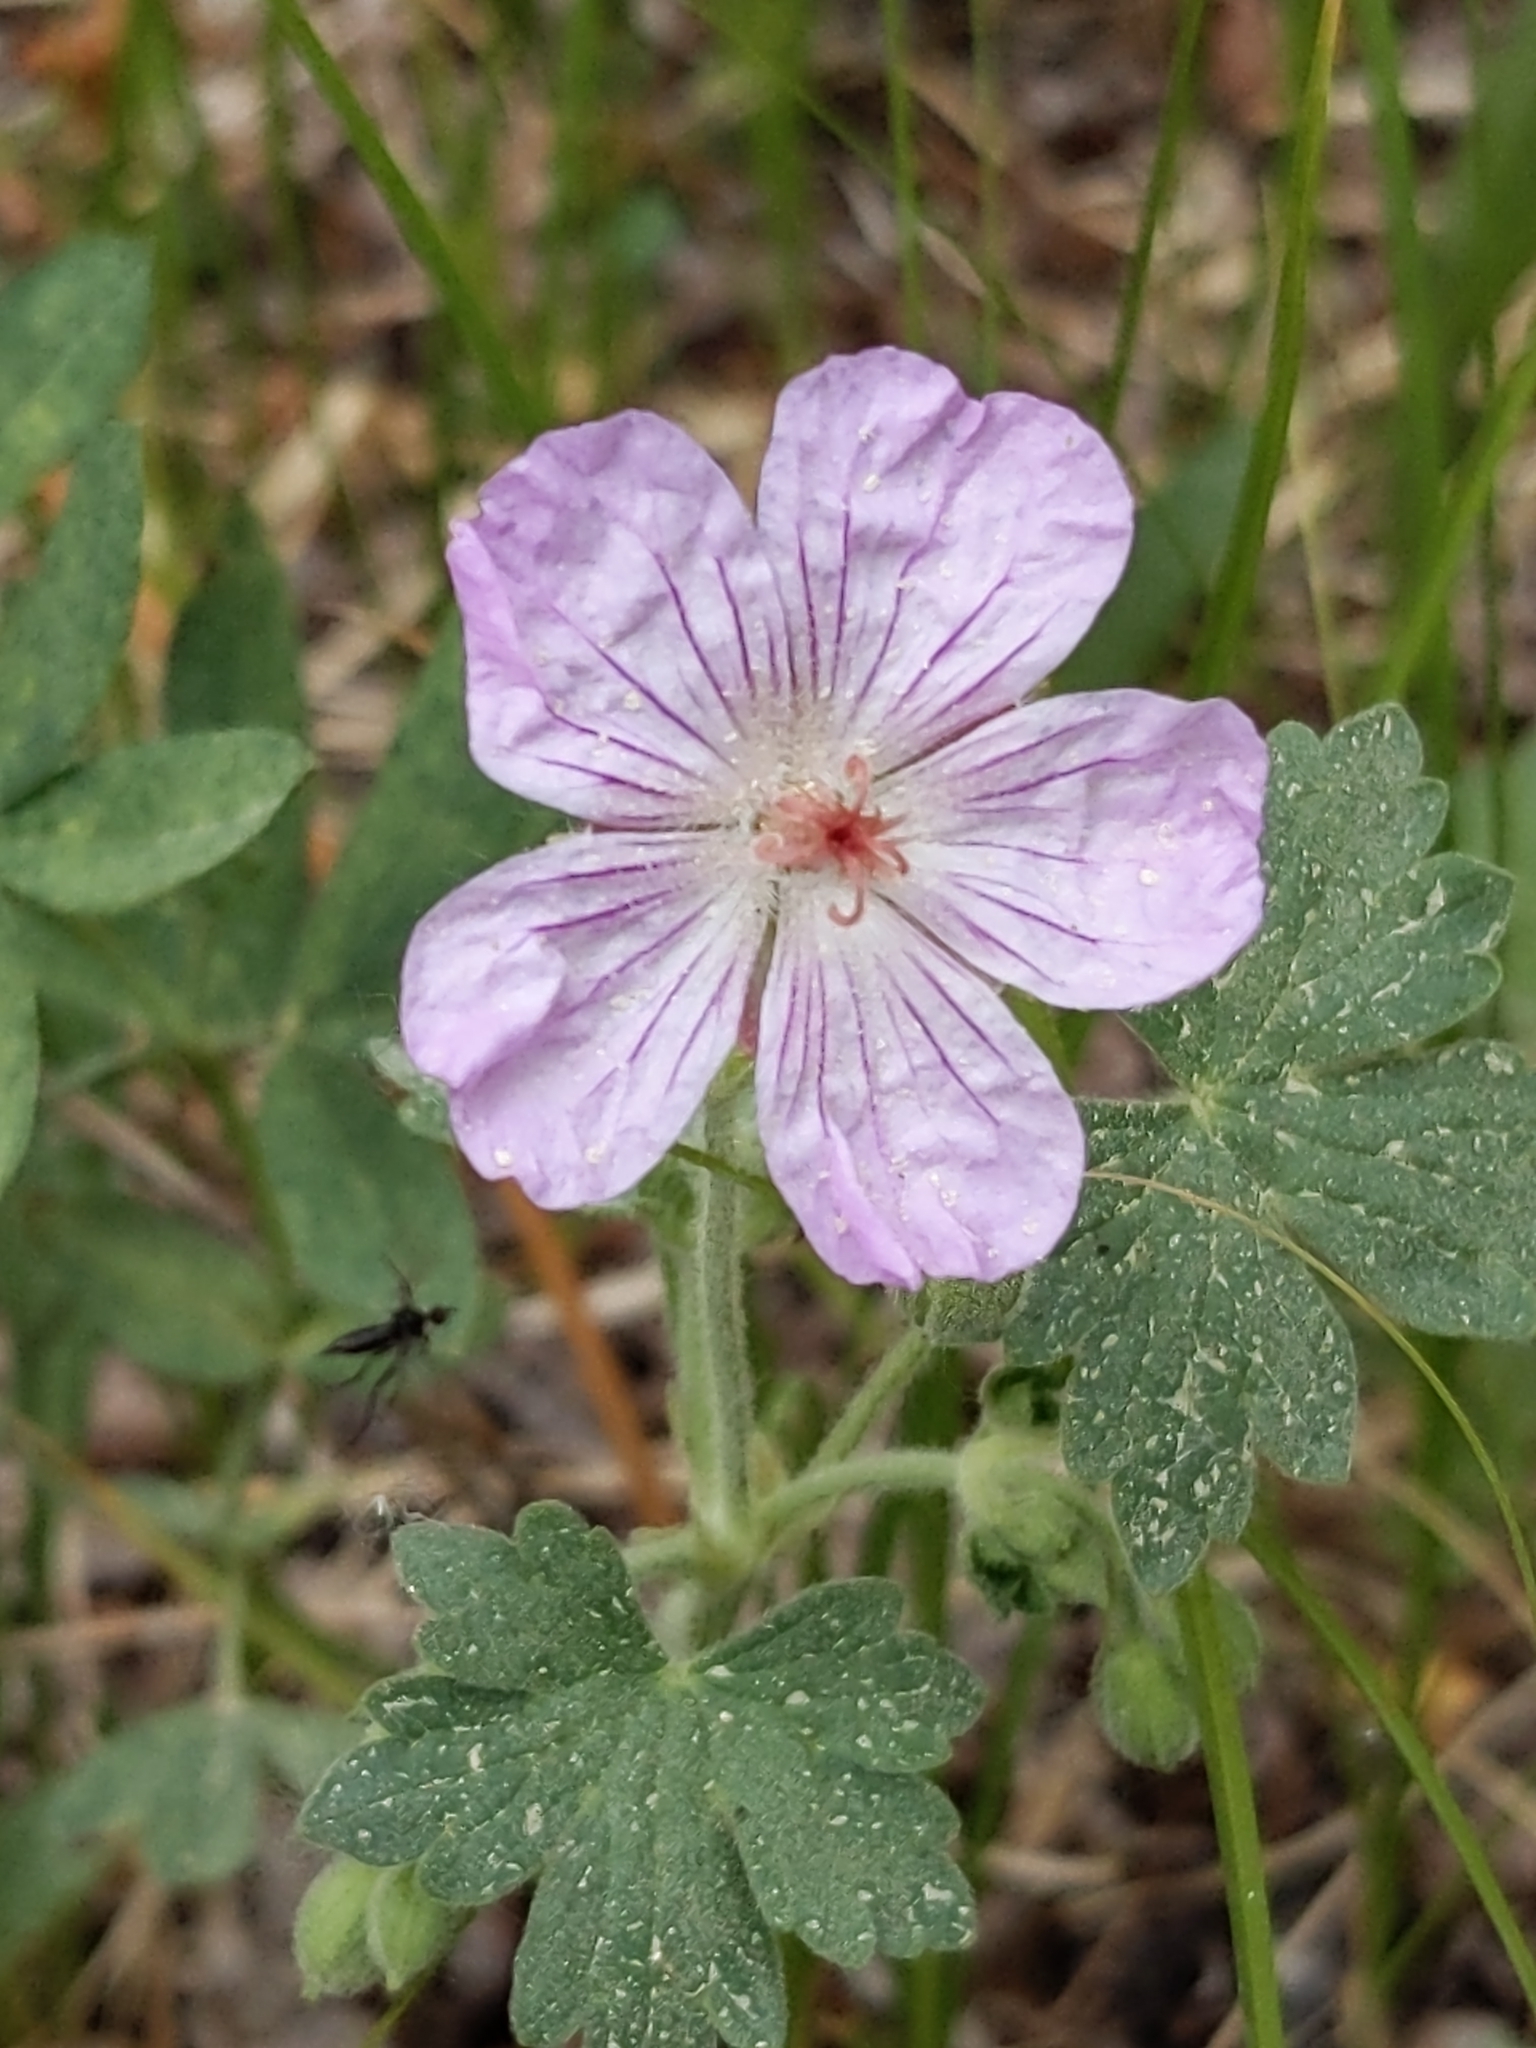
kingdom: Plantae
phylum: Tracheophyta
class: Magnoliopsida
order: Geraniales
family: Geraniaceae
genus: Geranium
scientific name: Geranium caespitosum
